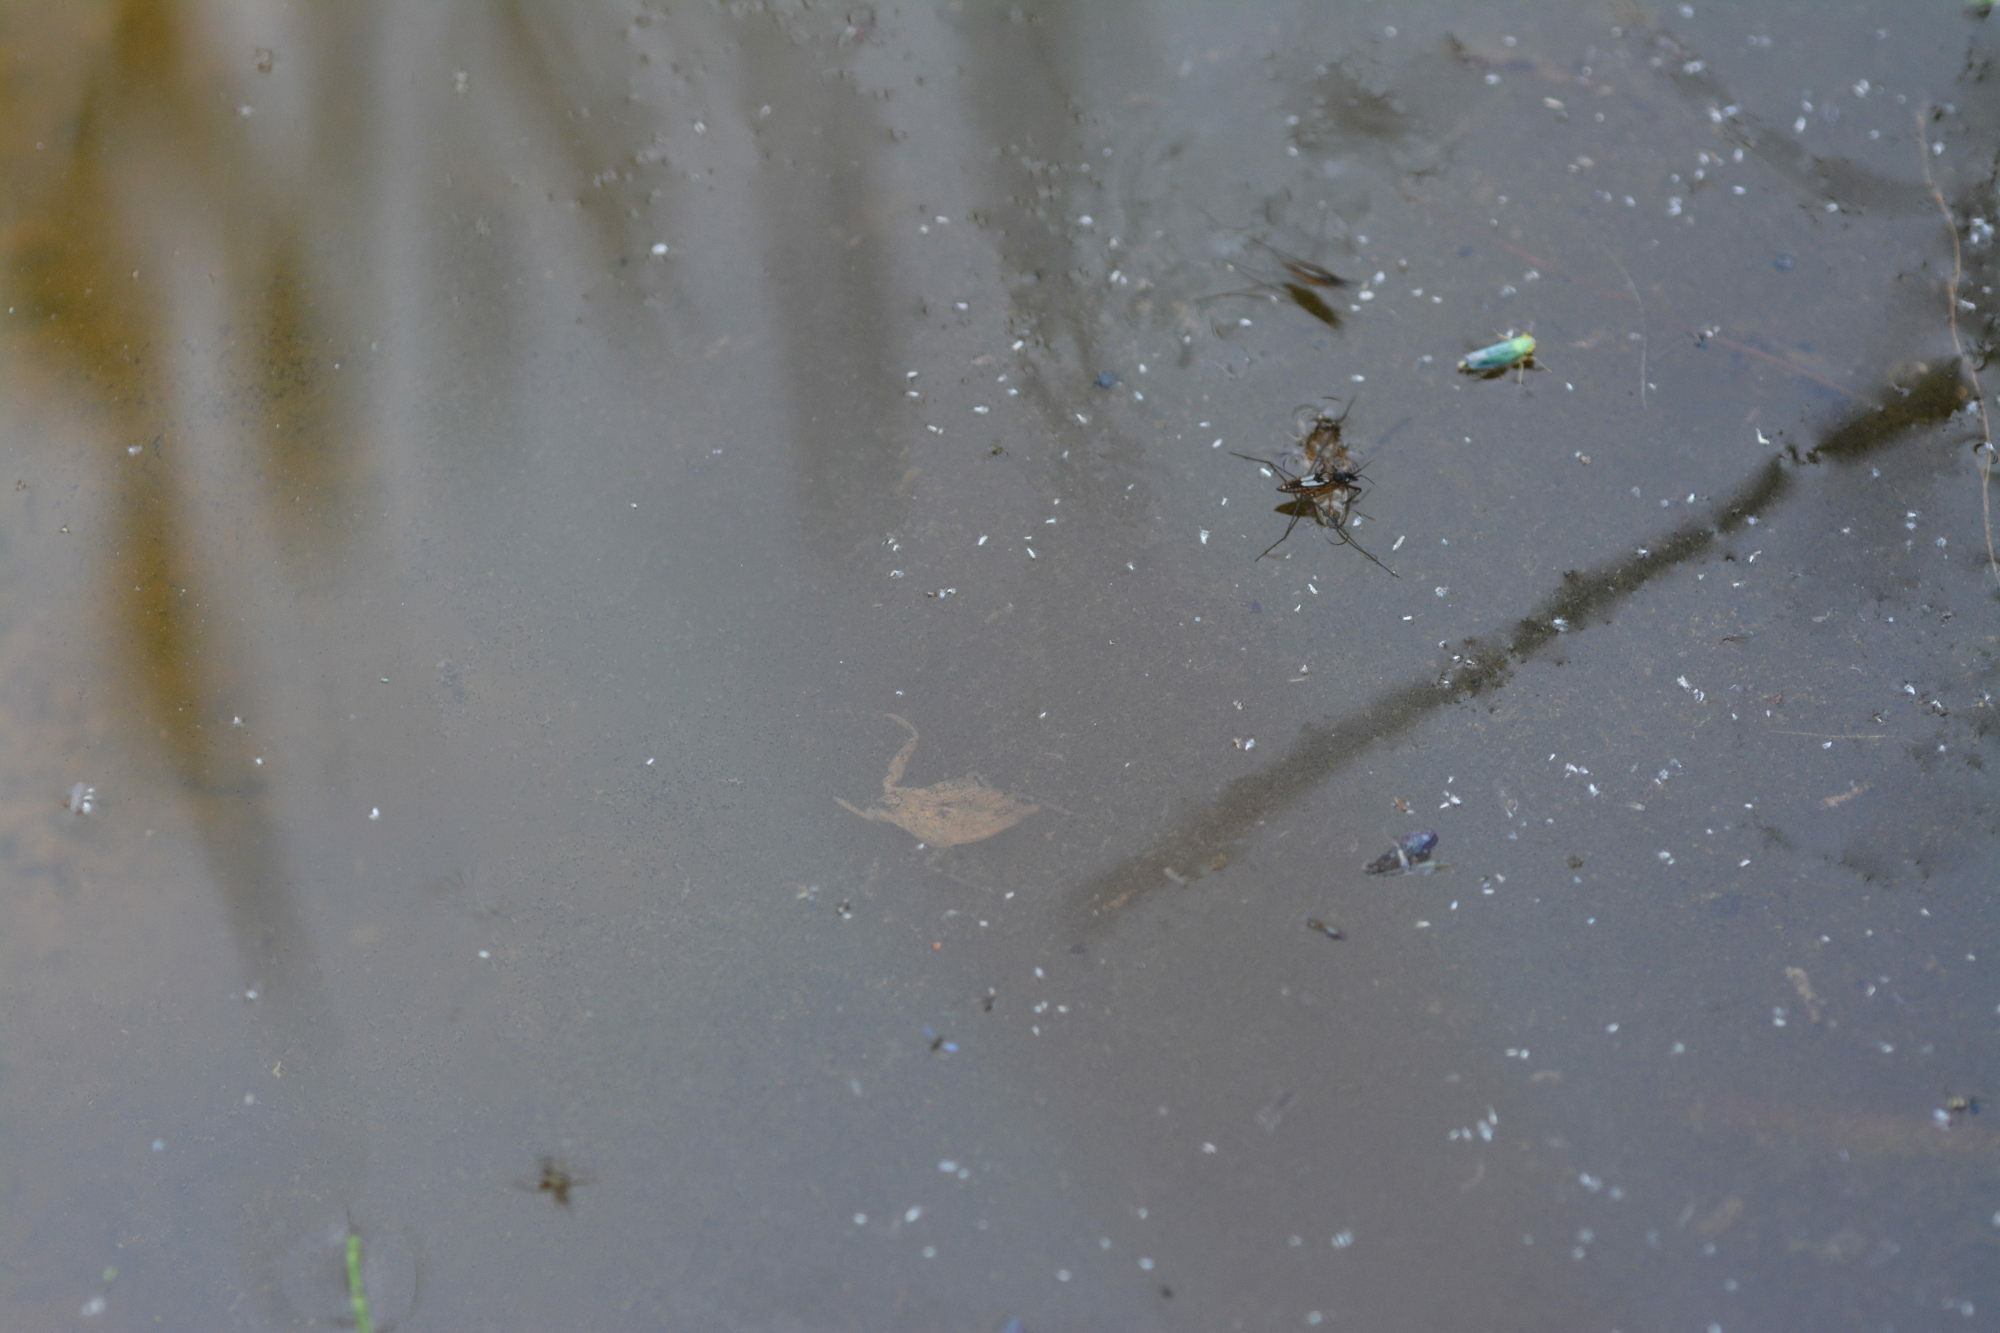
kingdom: Animalia
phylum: Arthropoda
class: Insecta
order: Hemiptera
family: Nepidae
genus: Nepa
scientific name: Nepa cinerea
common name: Water scorpion
